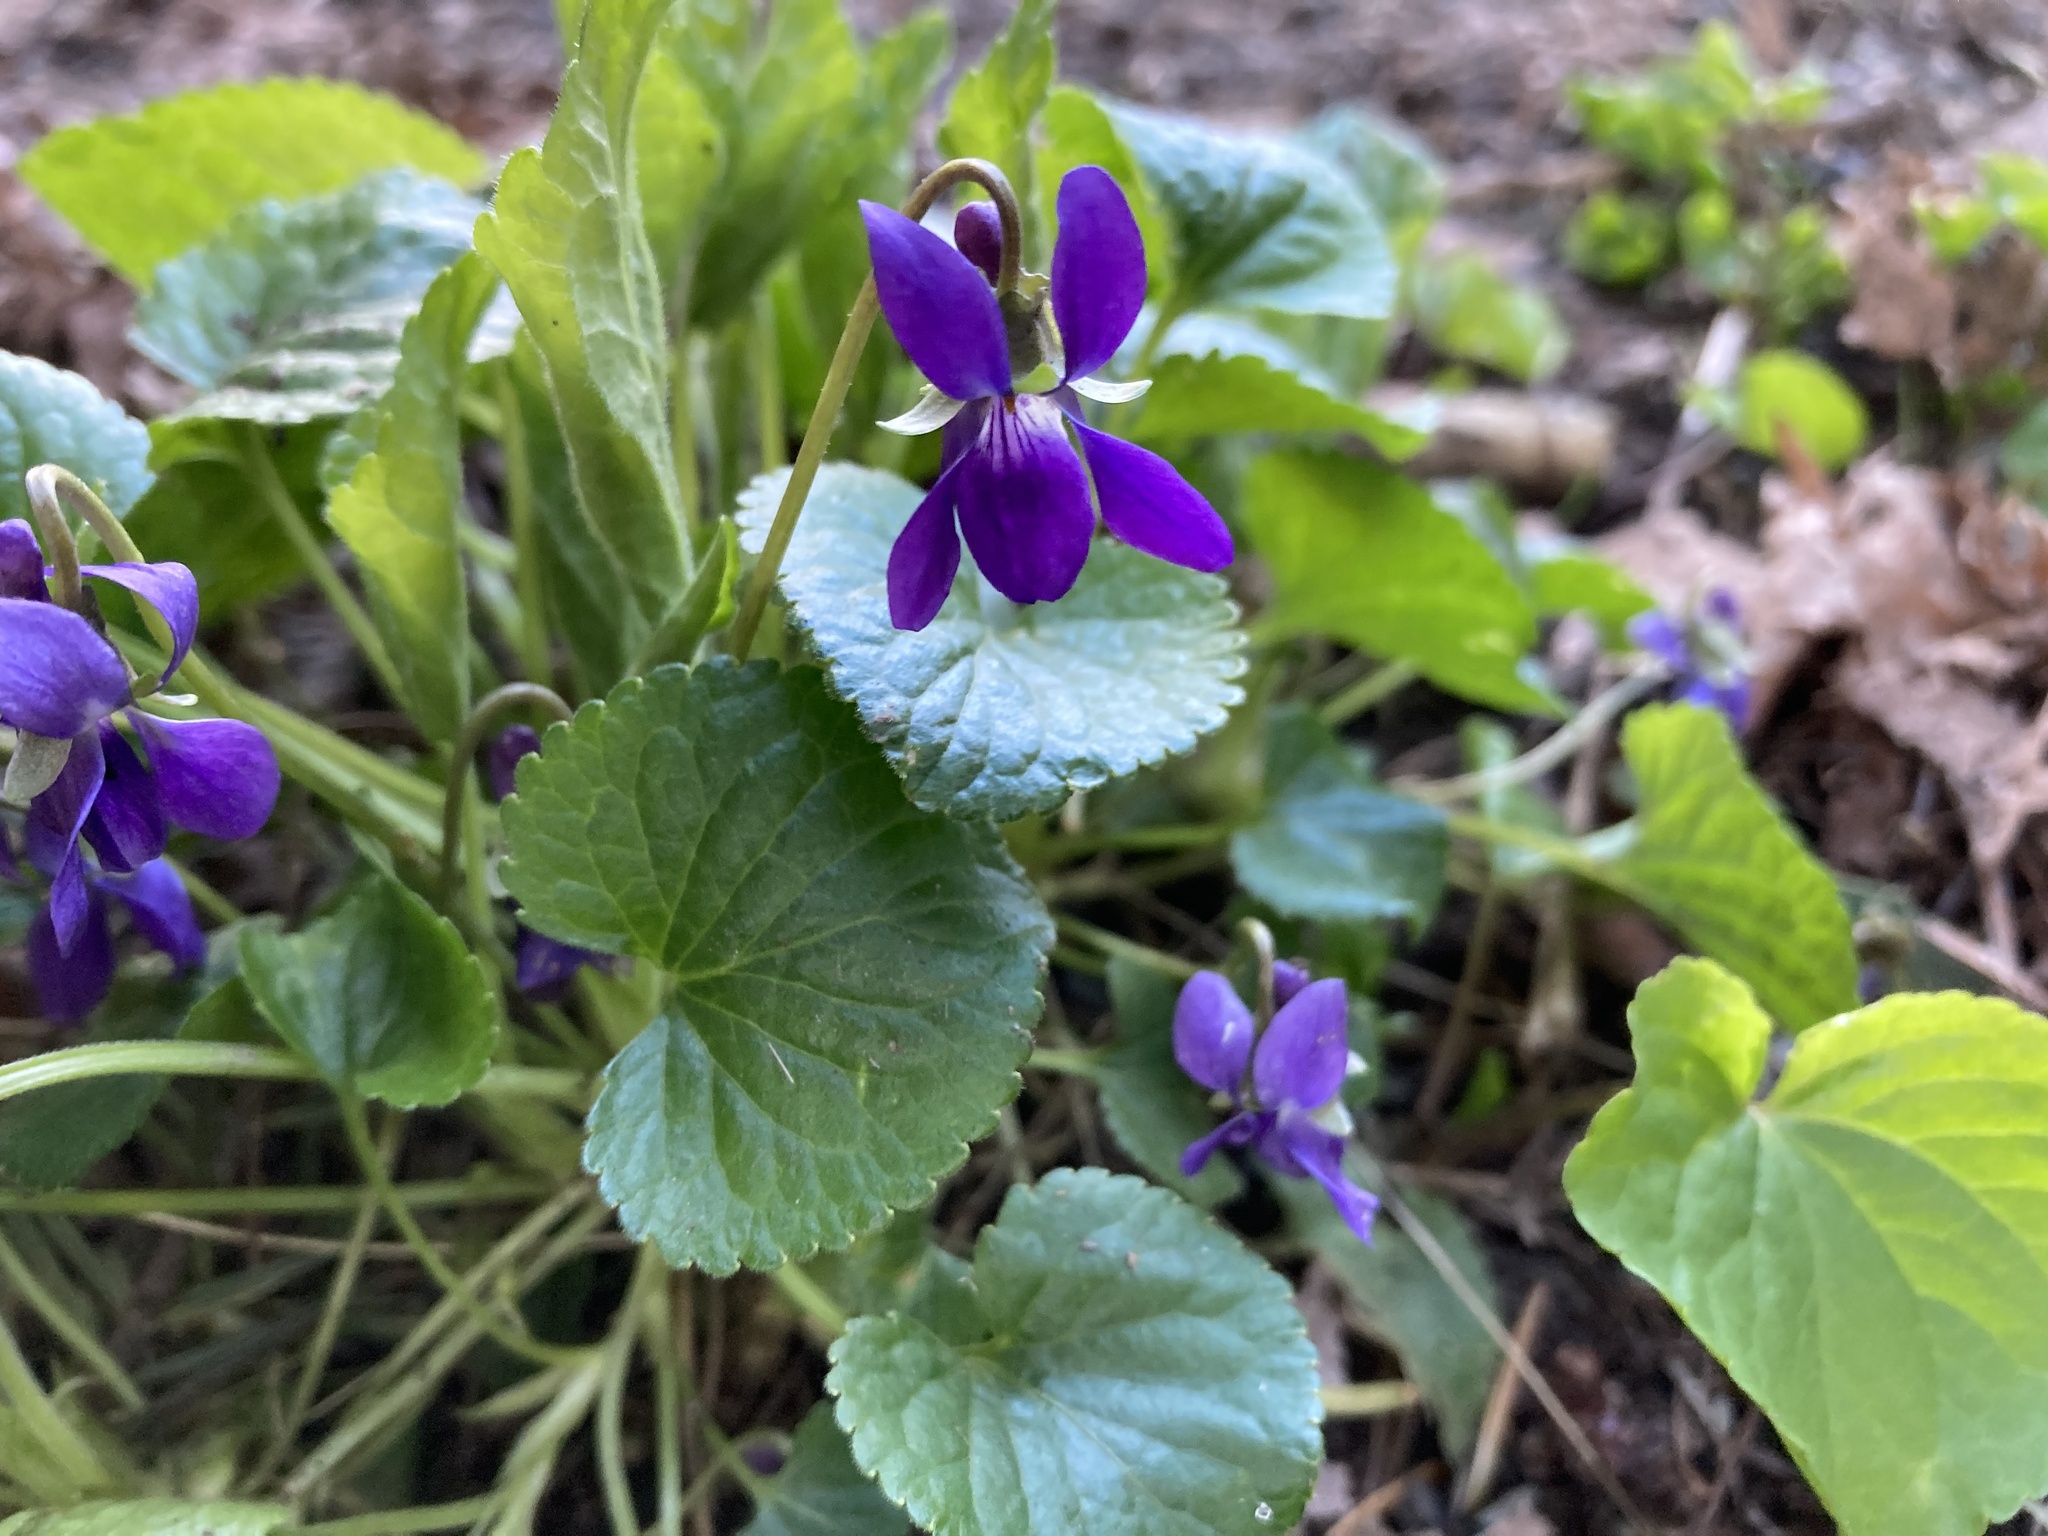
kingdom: Plantae
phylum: Tracheophyta
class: Magnoliopsida
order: Malpighiales
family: Violaceae
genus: Viola
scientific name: Viola odorata
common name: Sweet violet
